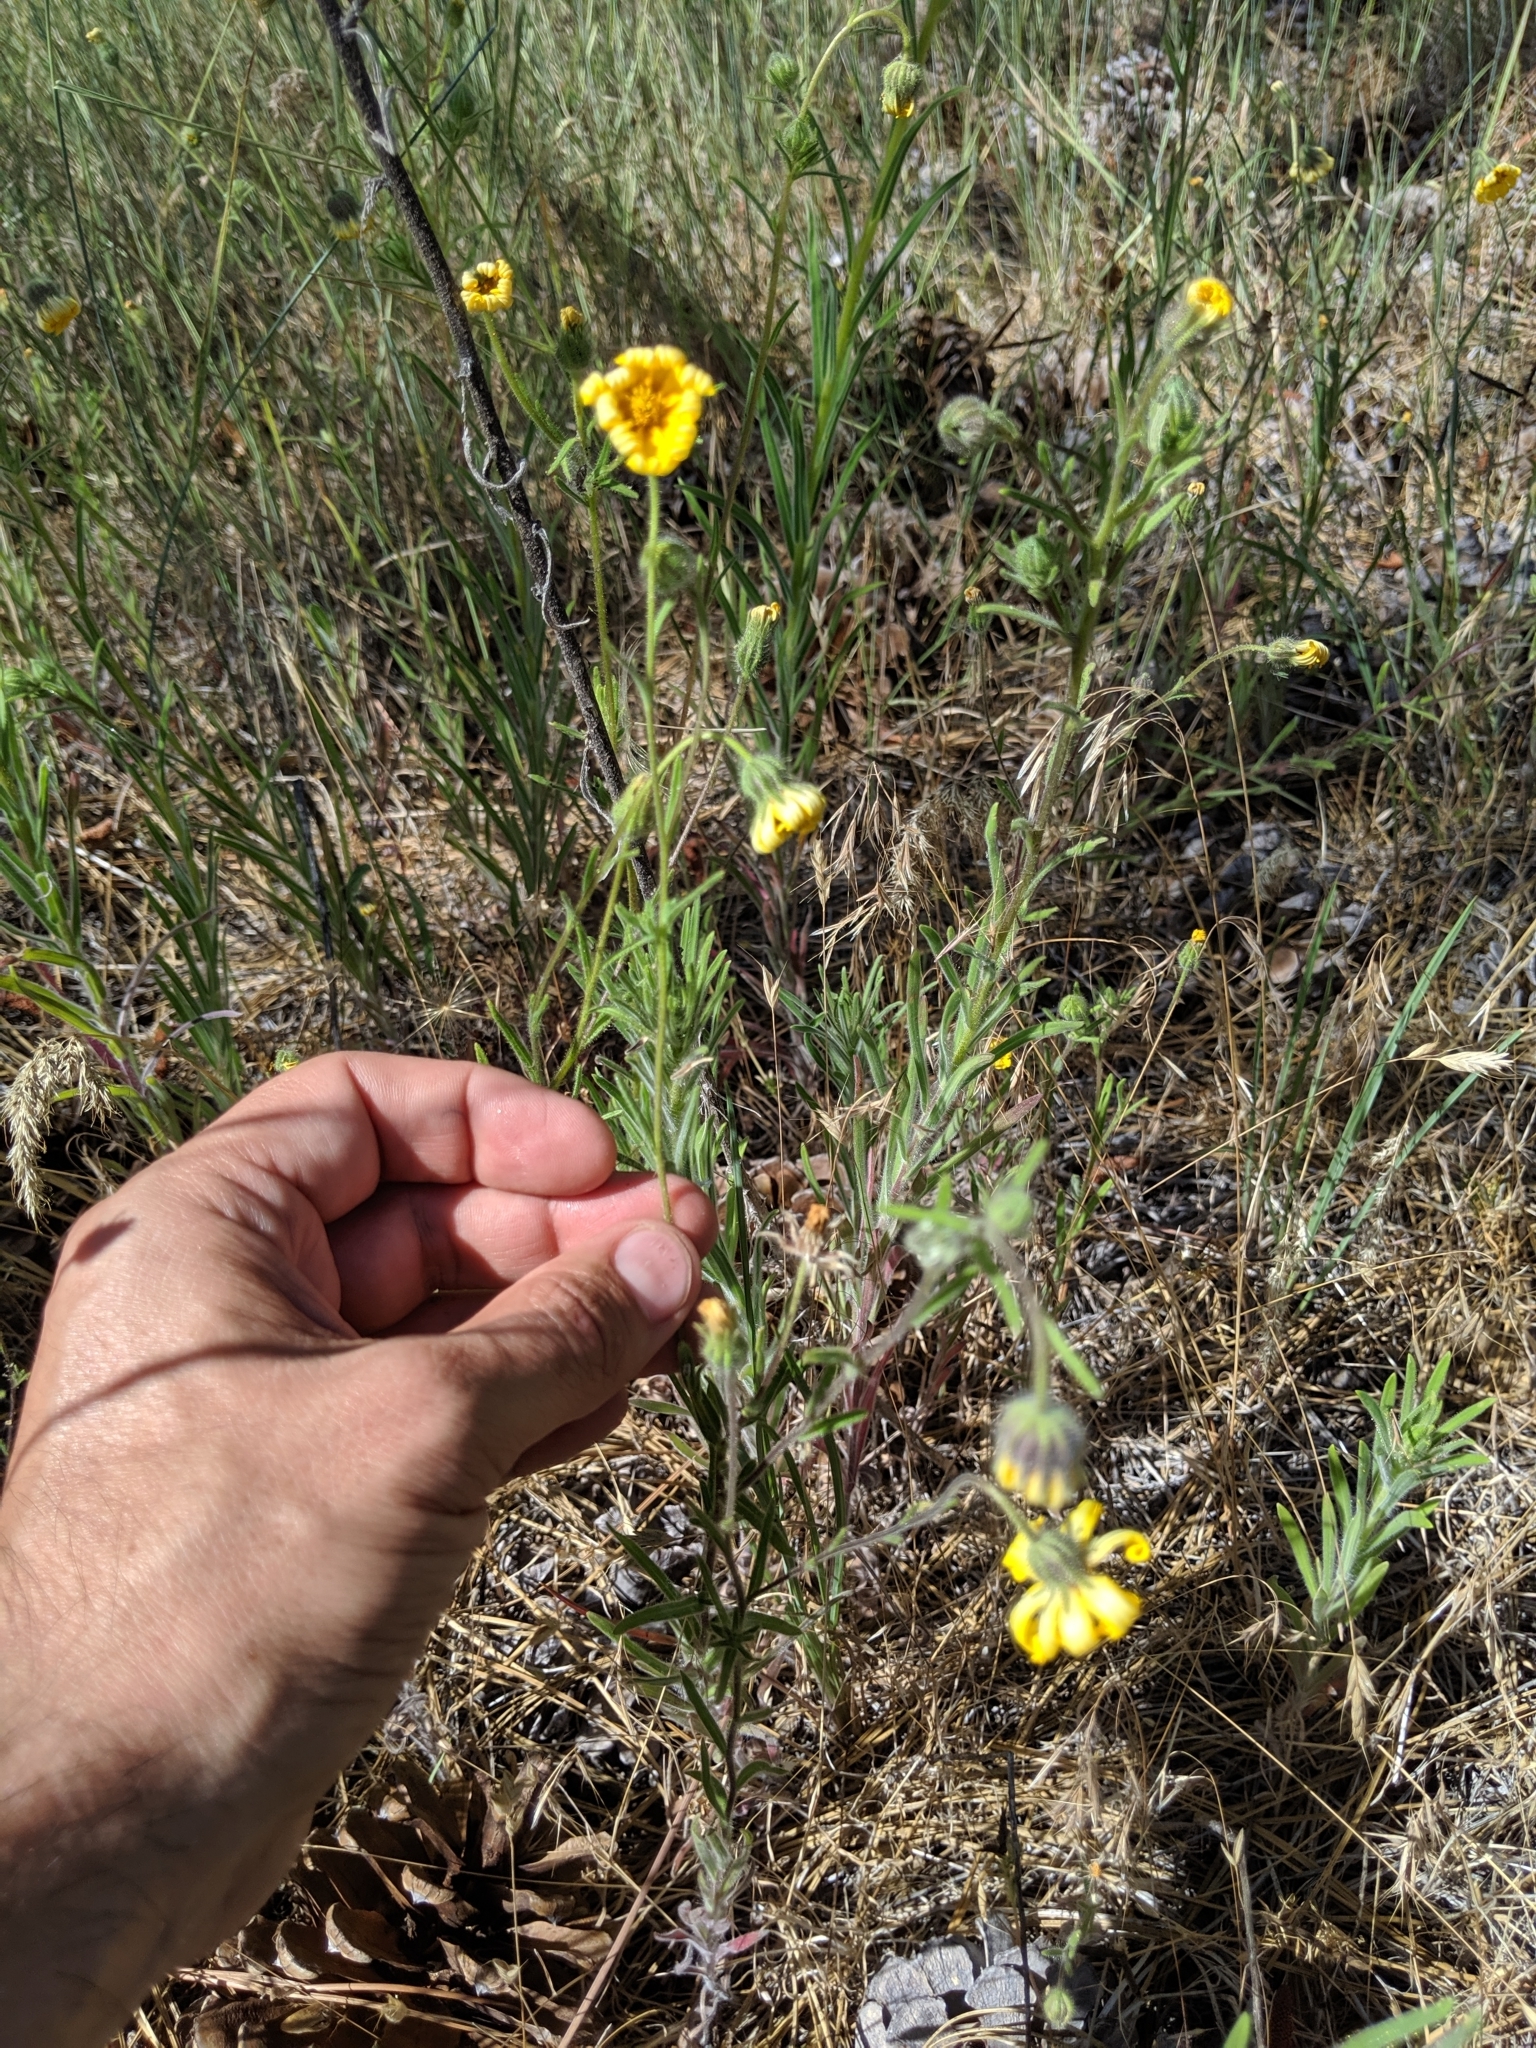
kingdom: Plantae
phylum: Tracheophyta
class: Magnoliopsida
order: Asterales
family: Asteraceae
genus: Madia
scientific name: Madia elegans
